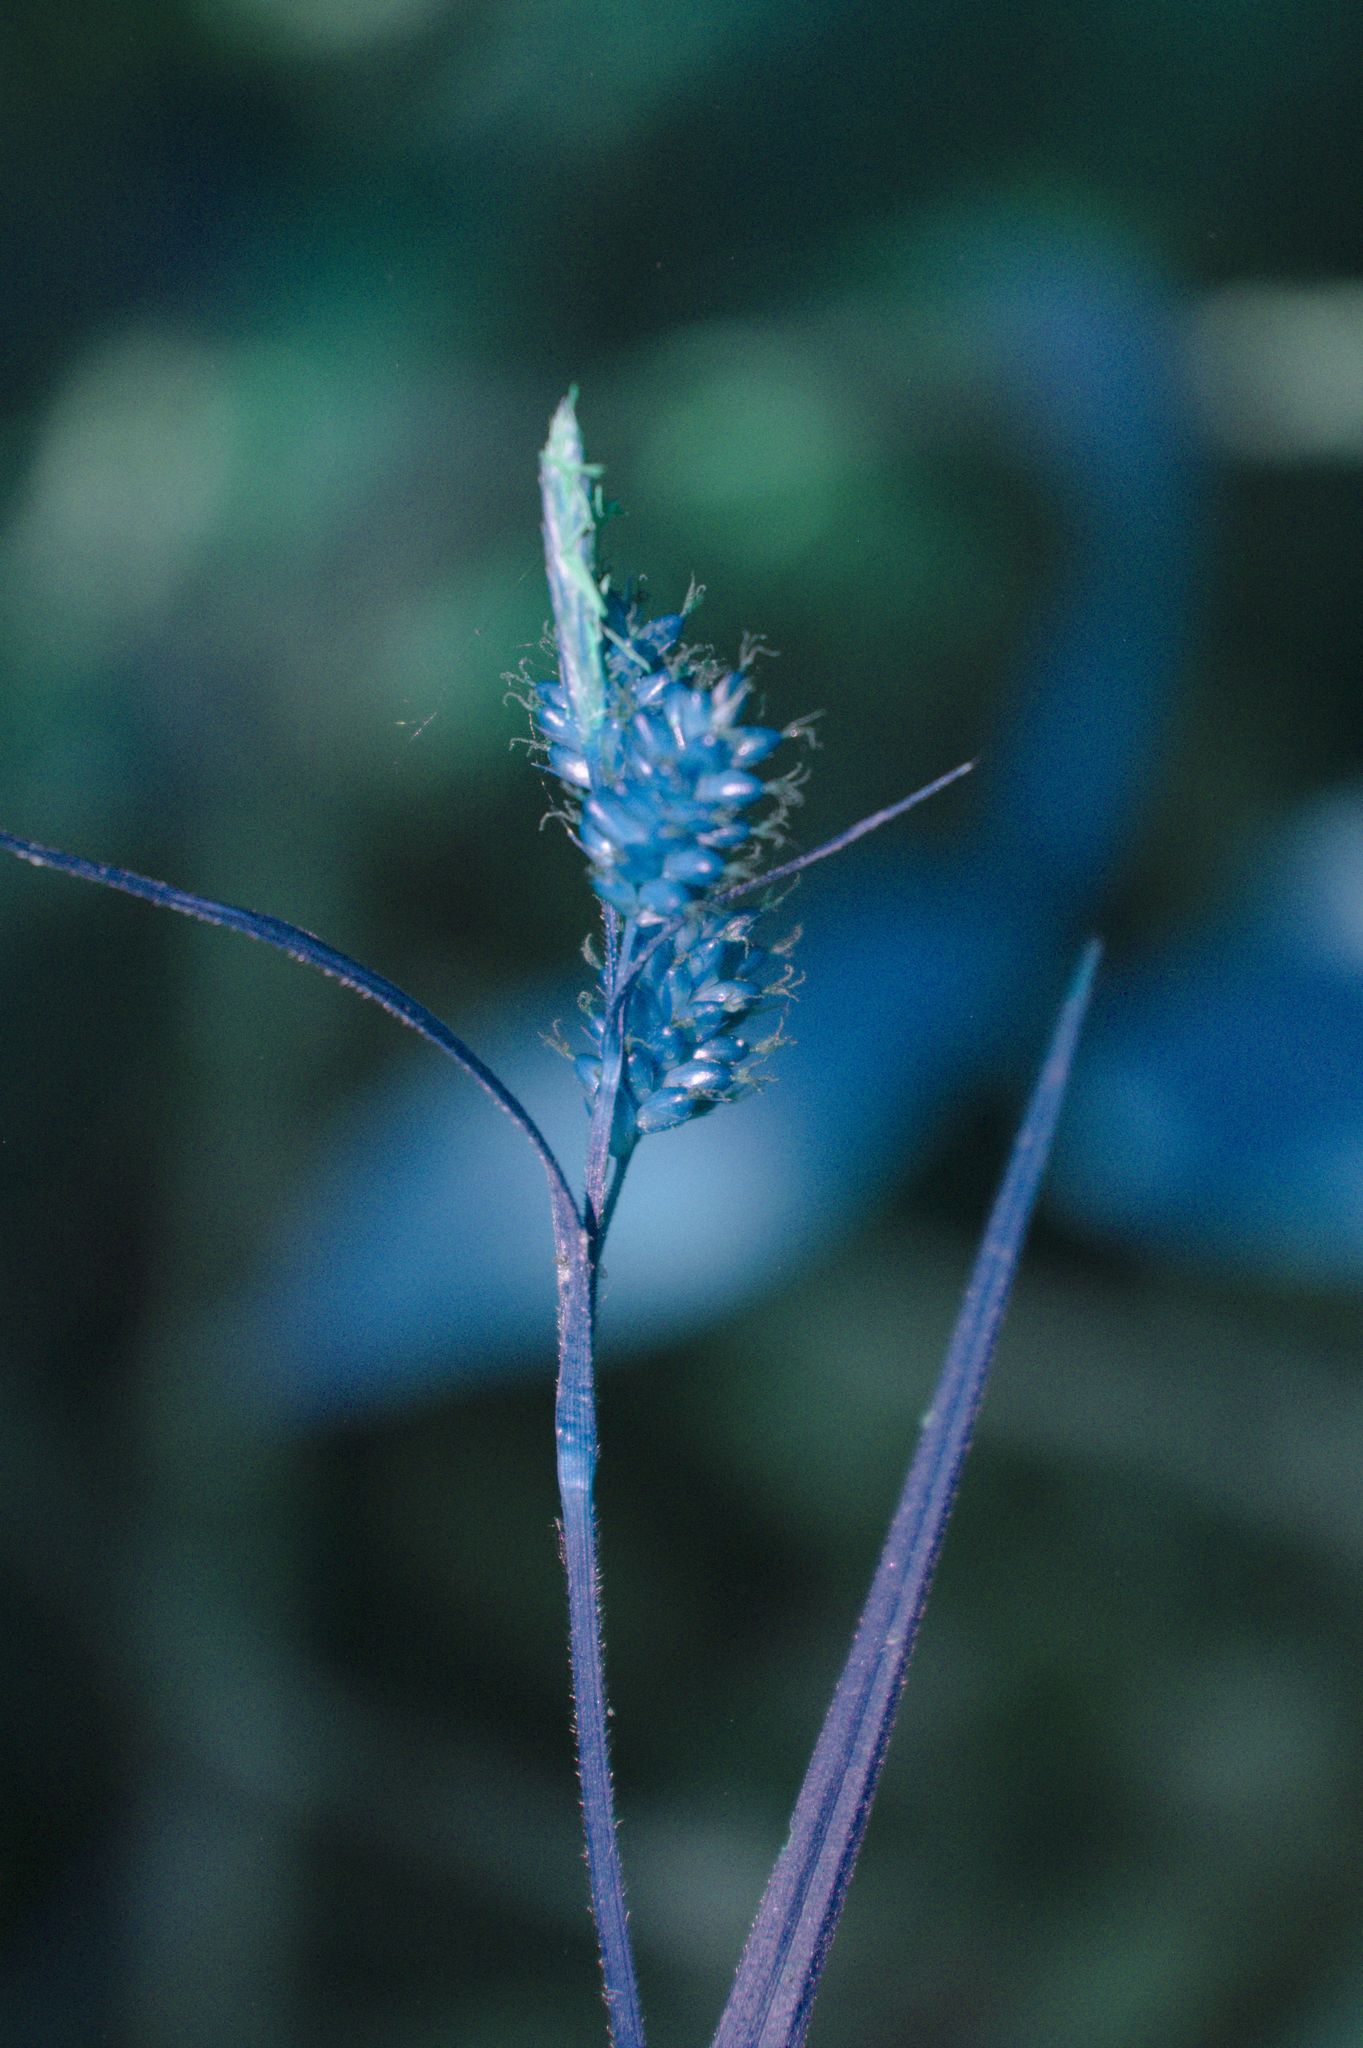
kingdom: Plantae
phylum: Tracheophyta
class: Liliopsida
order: Poales
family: Cyperaceae
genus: Carex
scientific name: Carex pallescens
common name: Pale sedge
